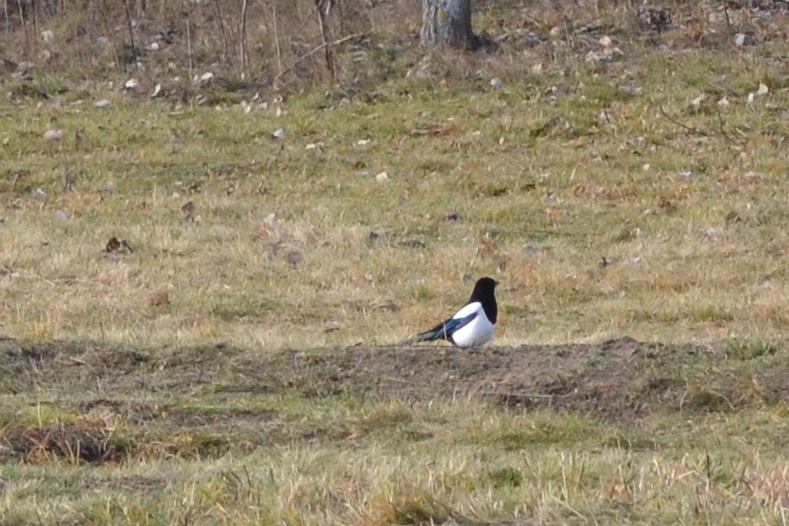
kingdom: Animalia
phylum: Chordata
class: Aves
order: Passeriformes
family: Corvidae
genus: Pica
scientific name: Pica pica
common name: Eurasian magpie
